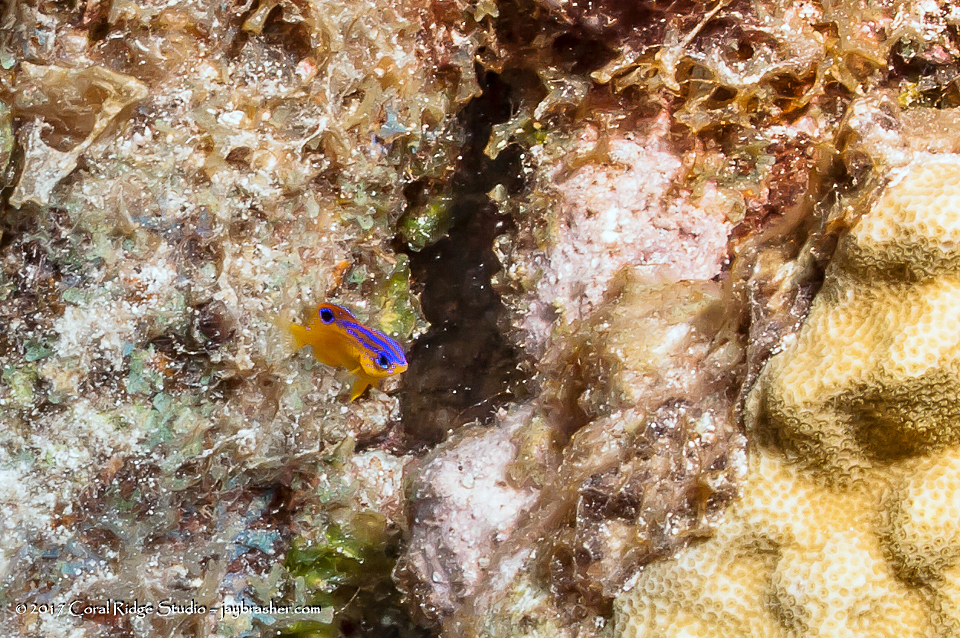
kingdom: Animalia
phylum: Chordata
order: Perciformes
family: Pomacentridae
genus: Stegastes
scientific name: Stegastes diencaeus
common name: Longfin damselfish
